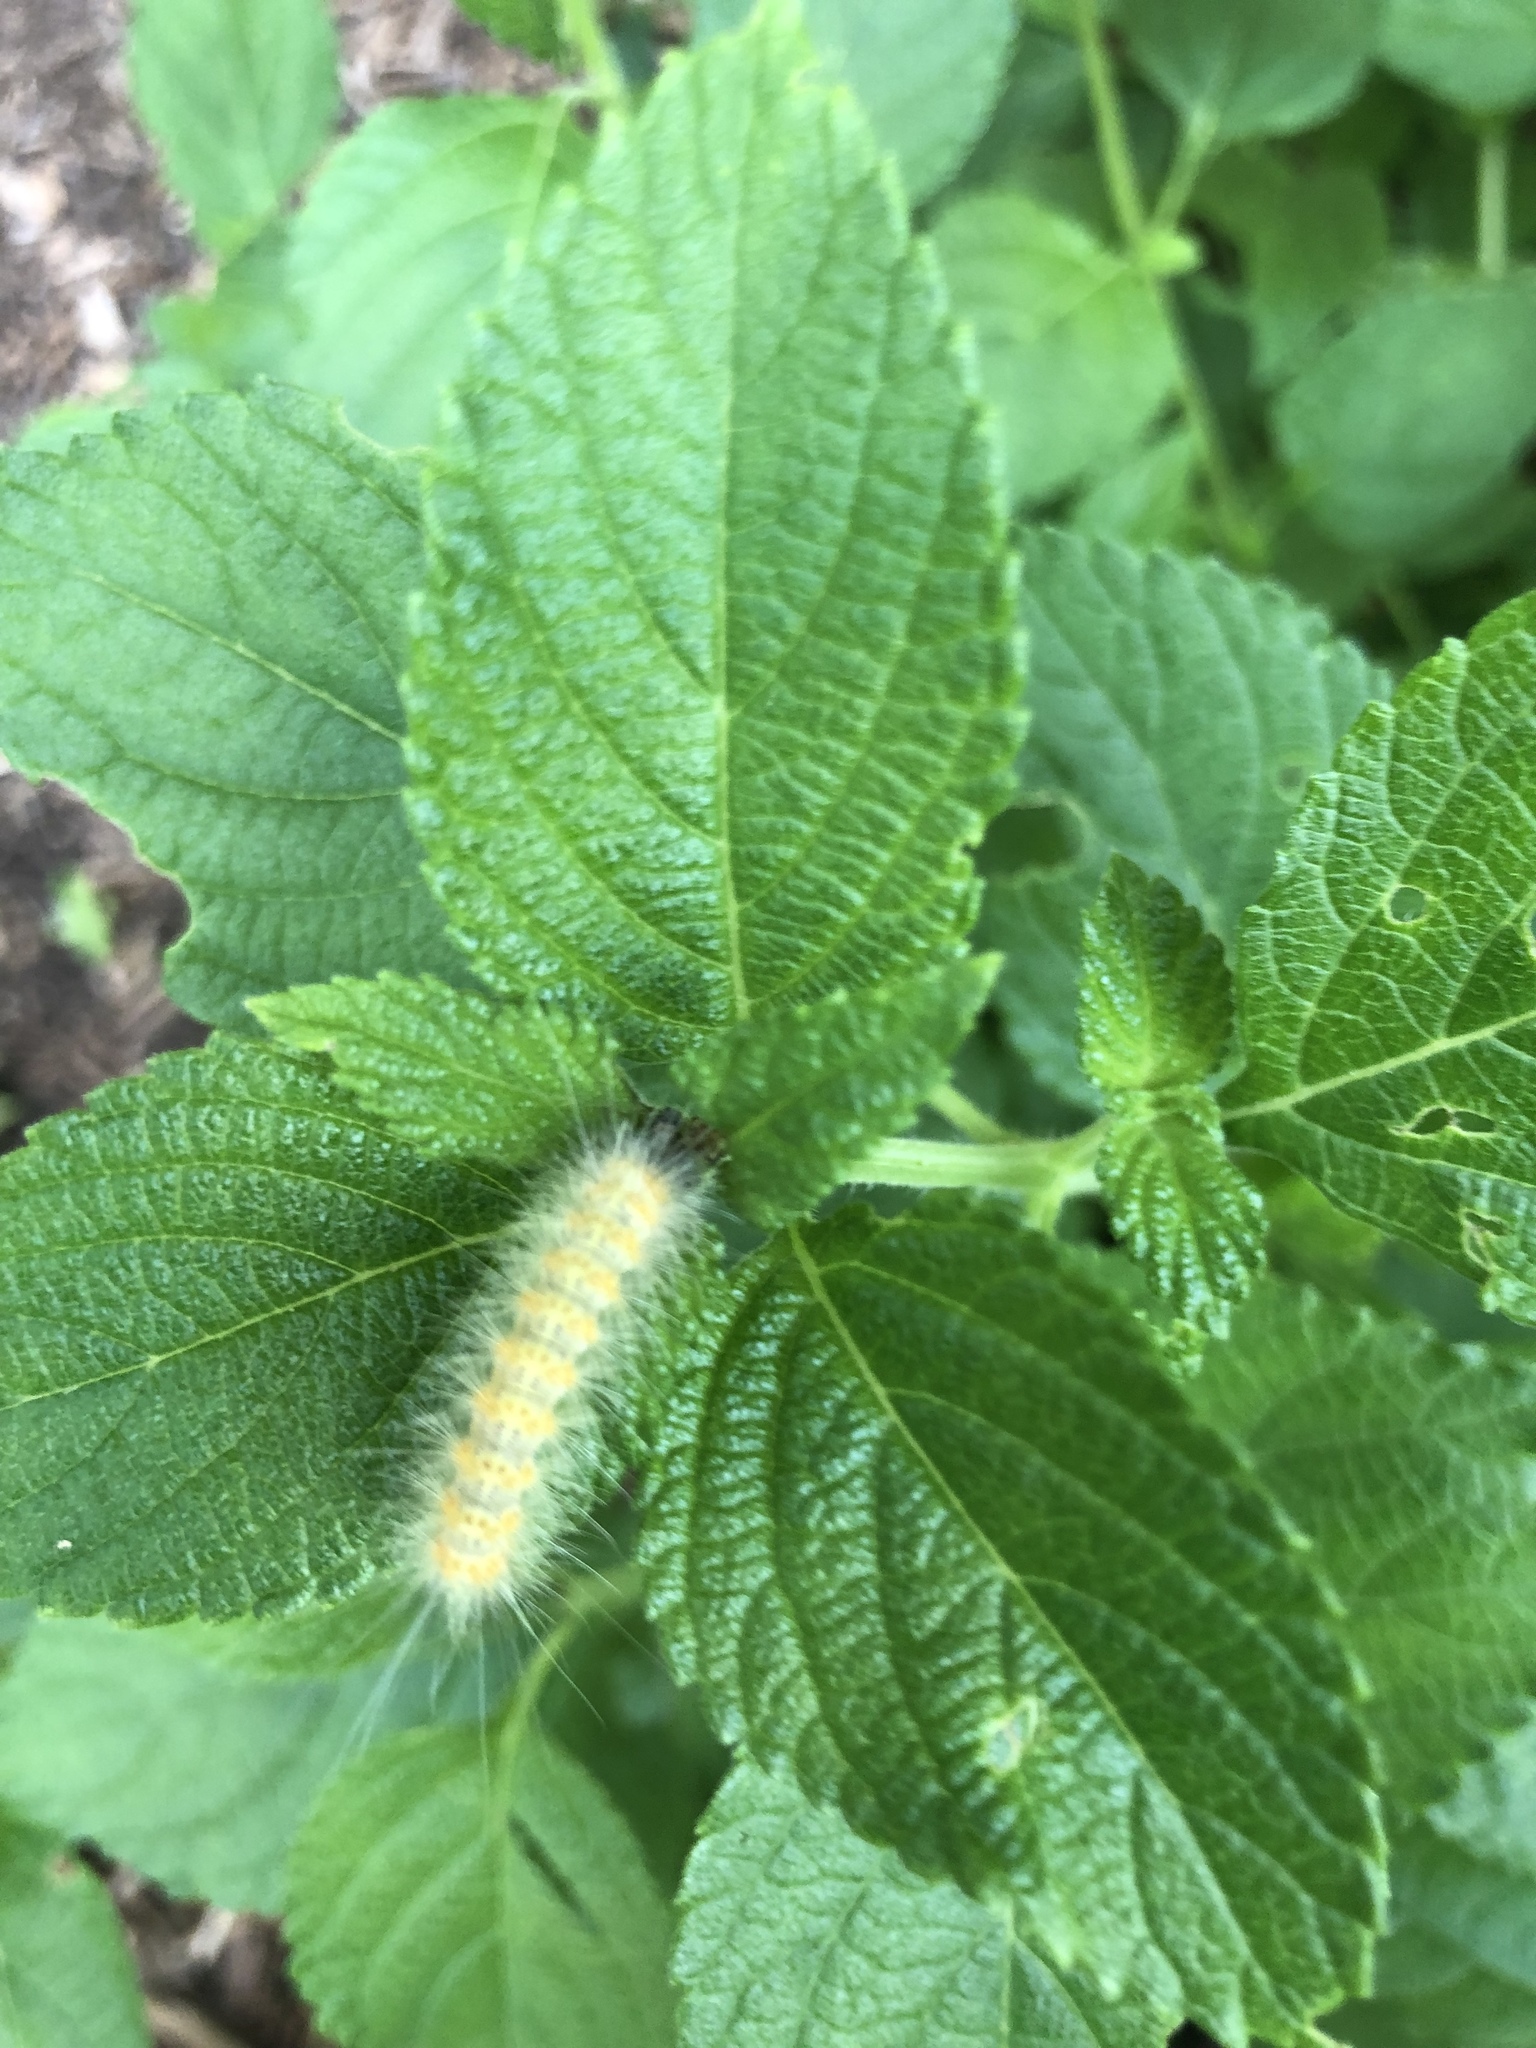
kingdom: Animalia
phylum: Arthropoda
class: Insecta
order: Lepidoptera
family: Erebidae
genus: Estigmene
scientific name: Estigmene acrea
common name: Salt marsh moth
